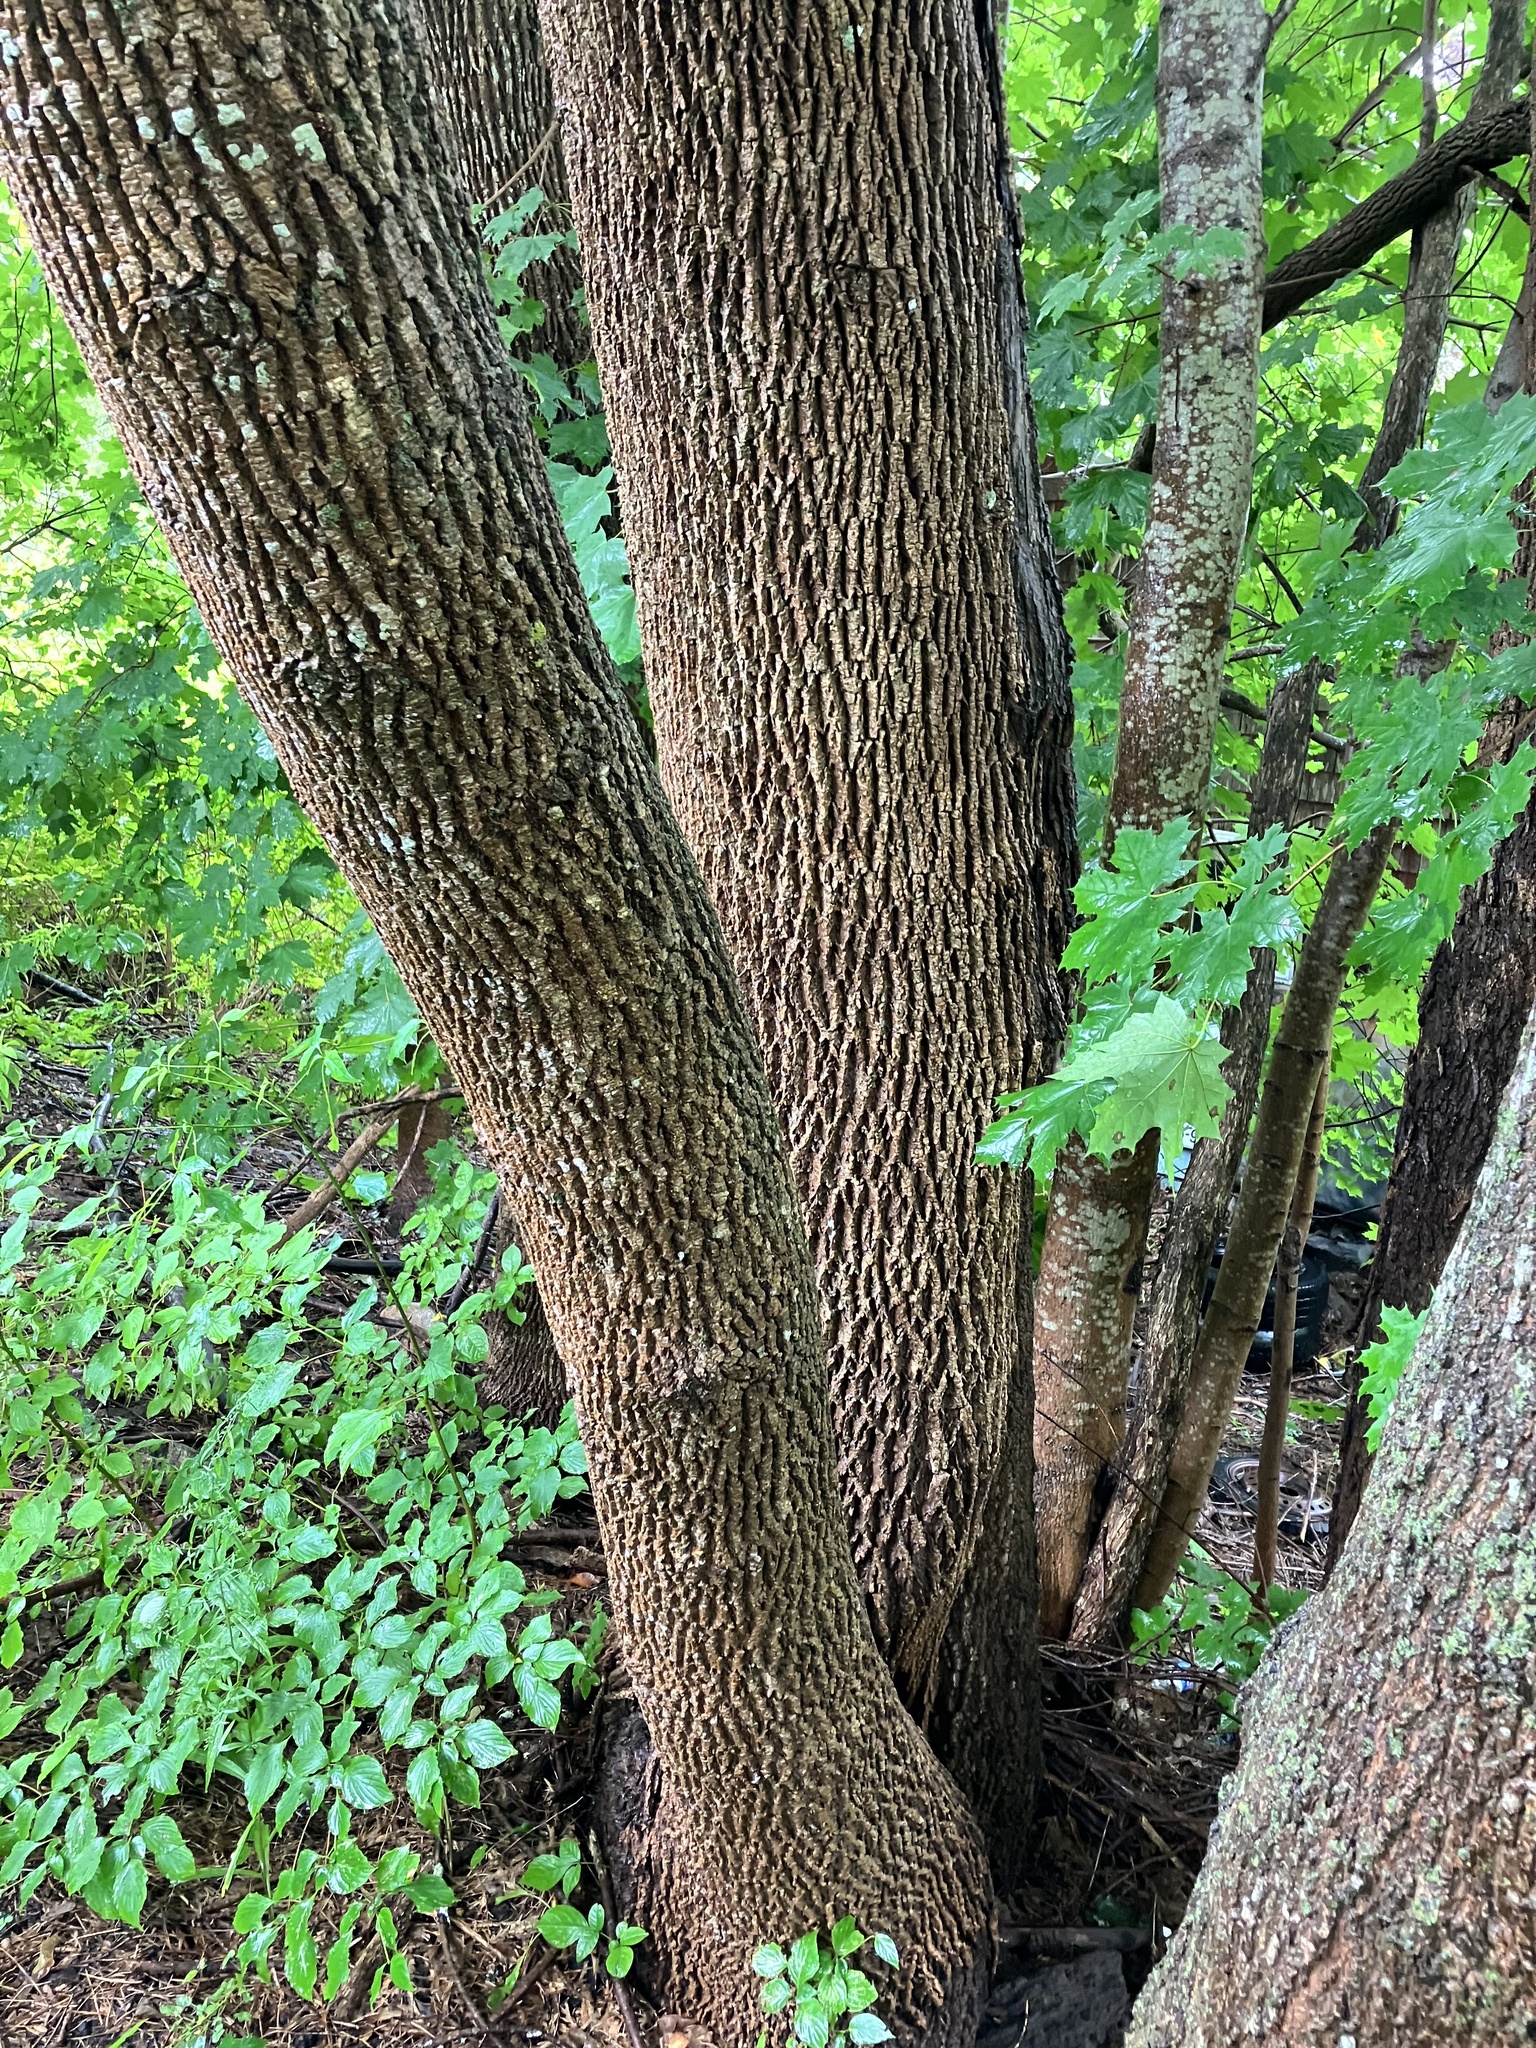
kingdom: Plantae
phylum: Tracheophyta
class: Magnoliopsida
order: Sapindales
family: Sapindaceae
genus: Acer
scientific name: Acer platanoides
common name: Norway maple
